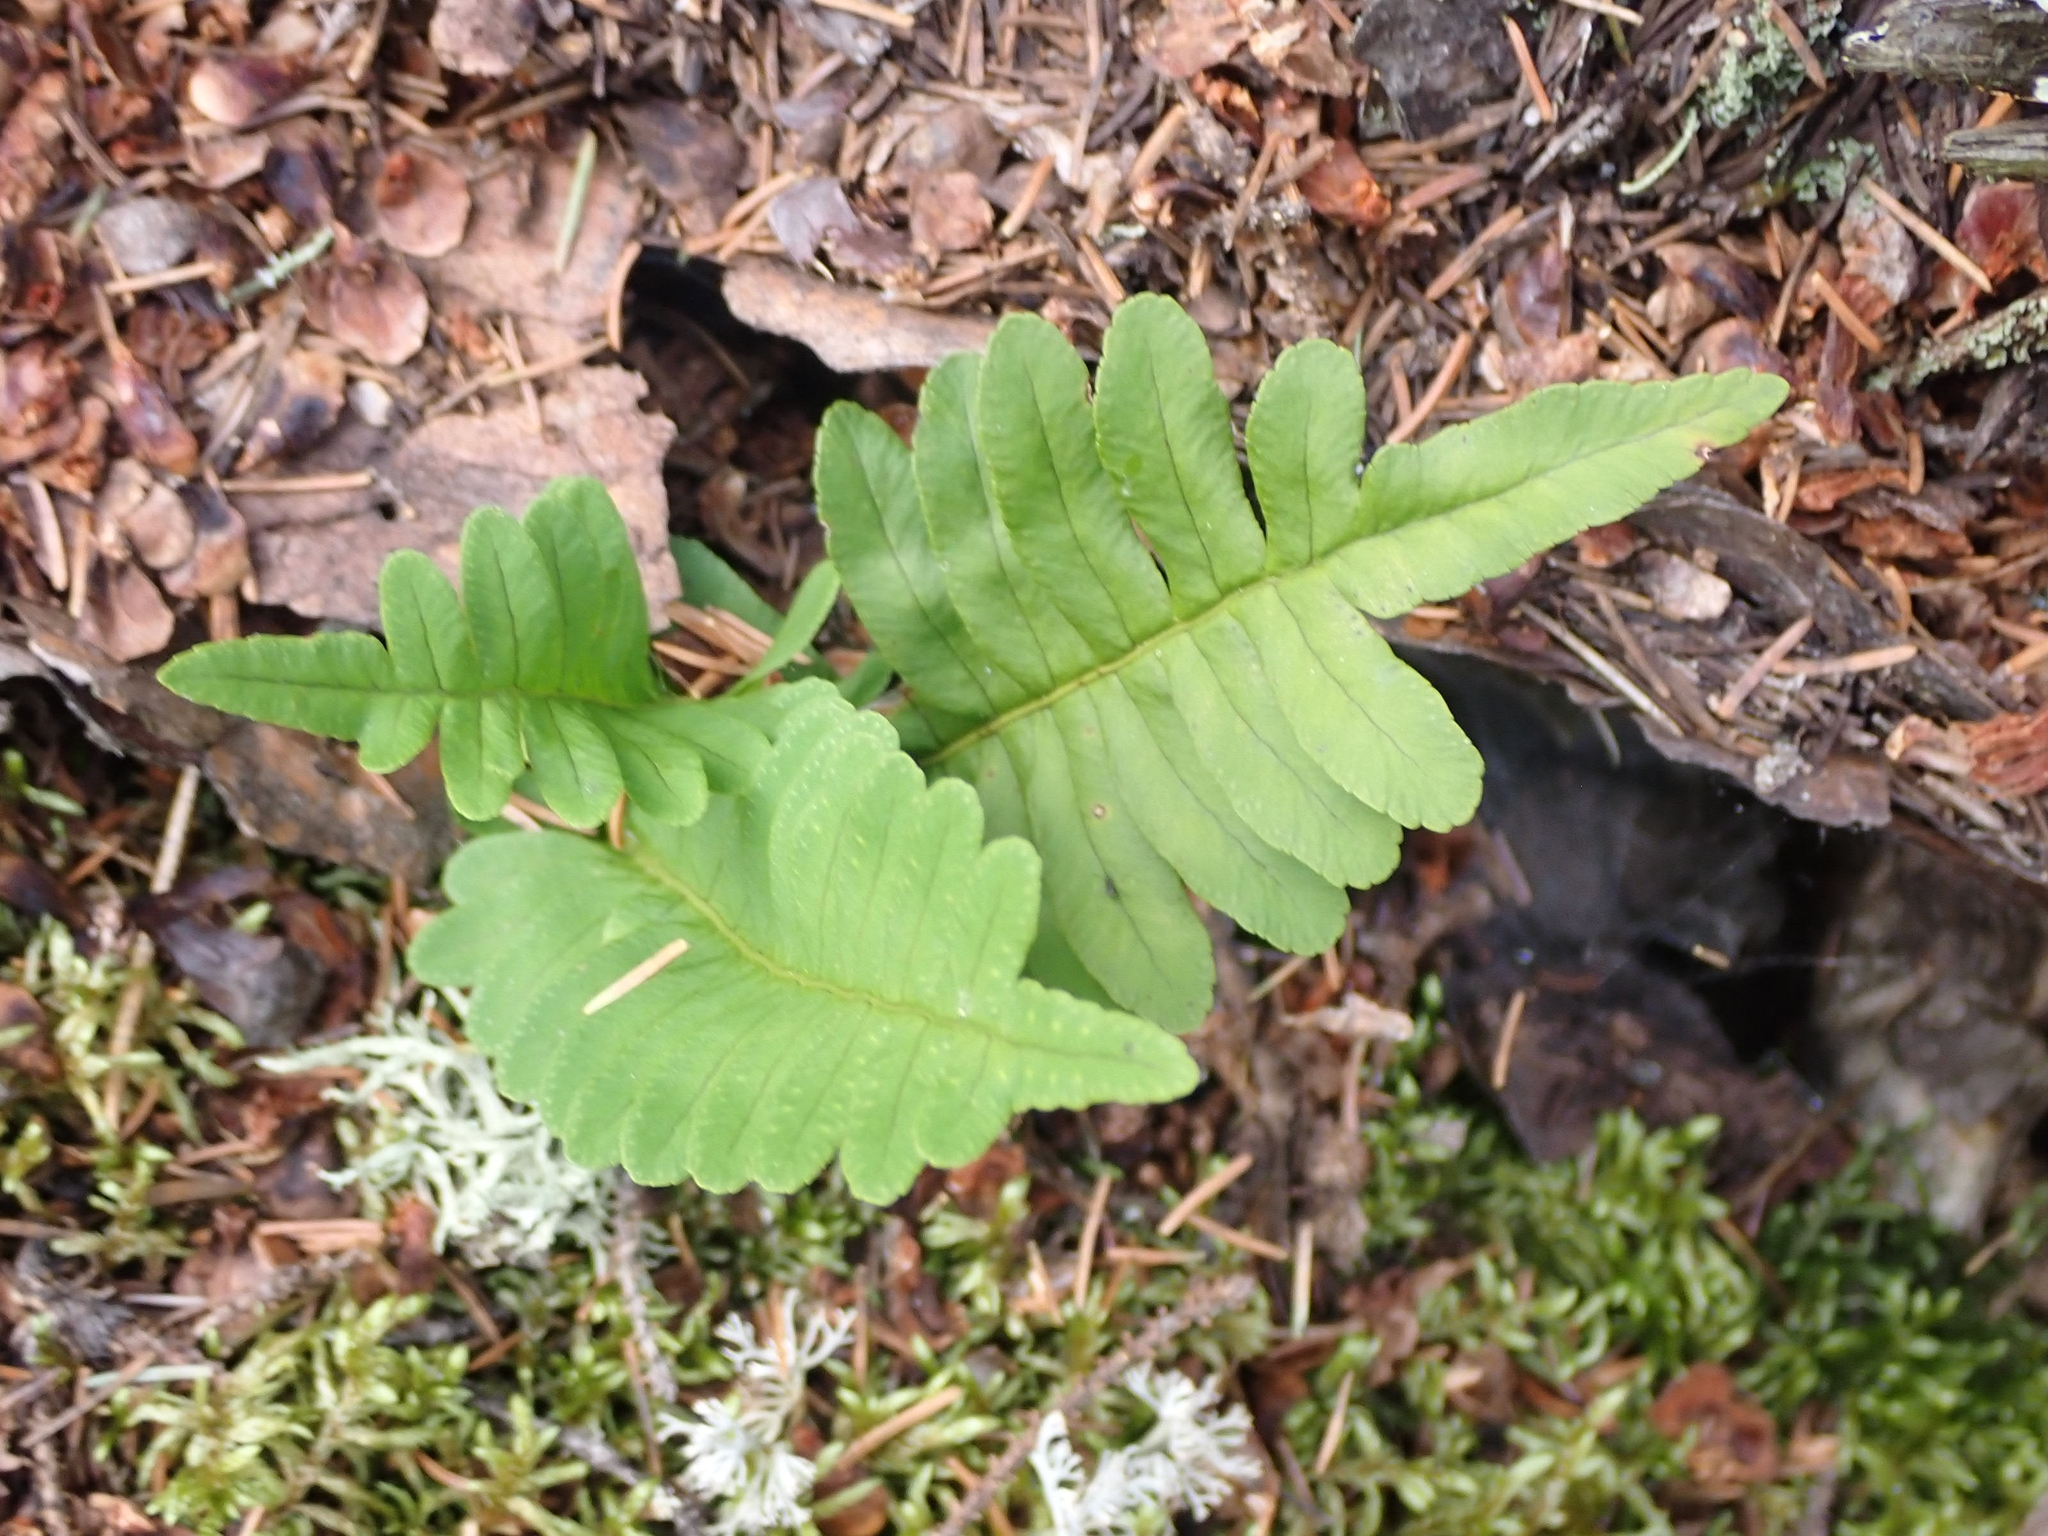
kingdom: Plantae
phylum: Tracheophyta
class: Polypodiopsida
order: Polypodiales
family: Polypodiaceae
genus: Polypodium
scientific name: Polypodium virginianum
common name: American wall fern
